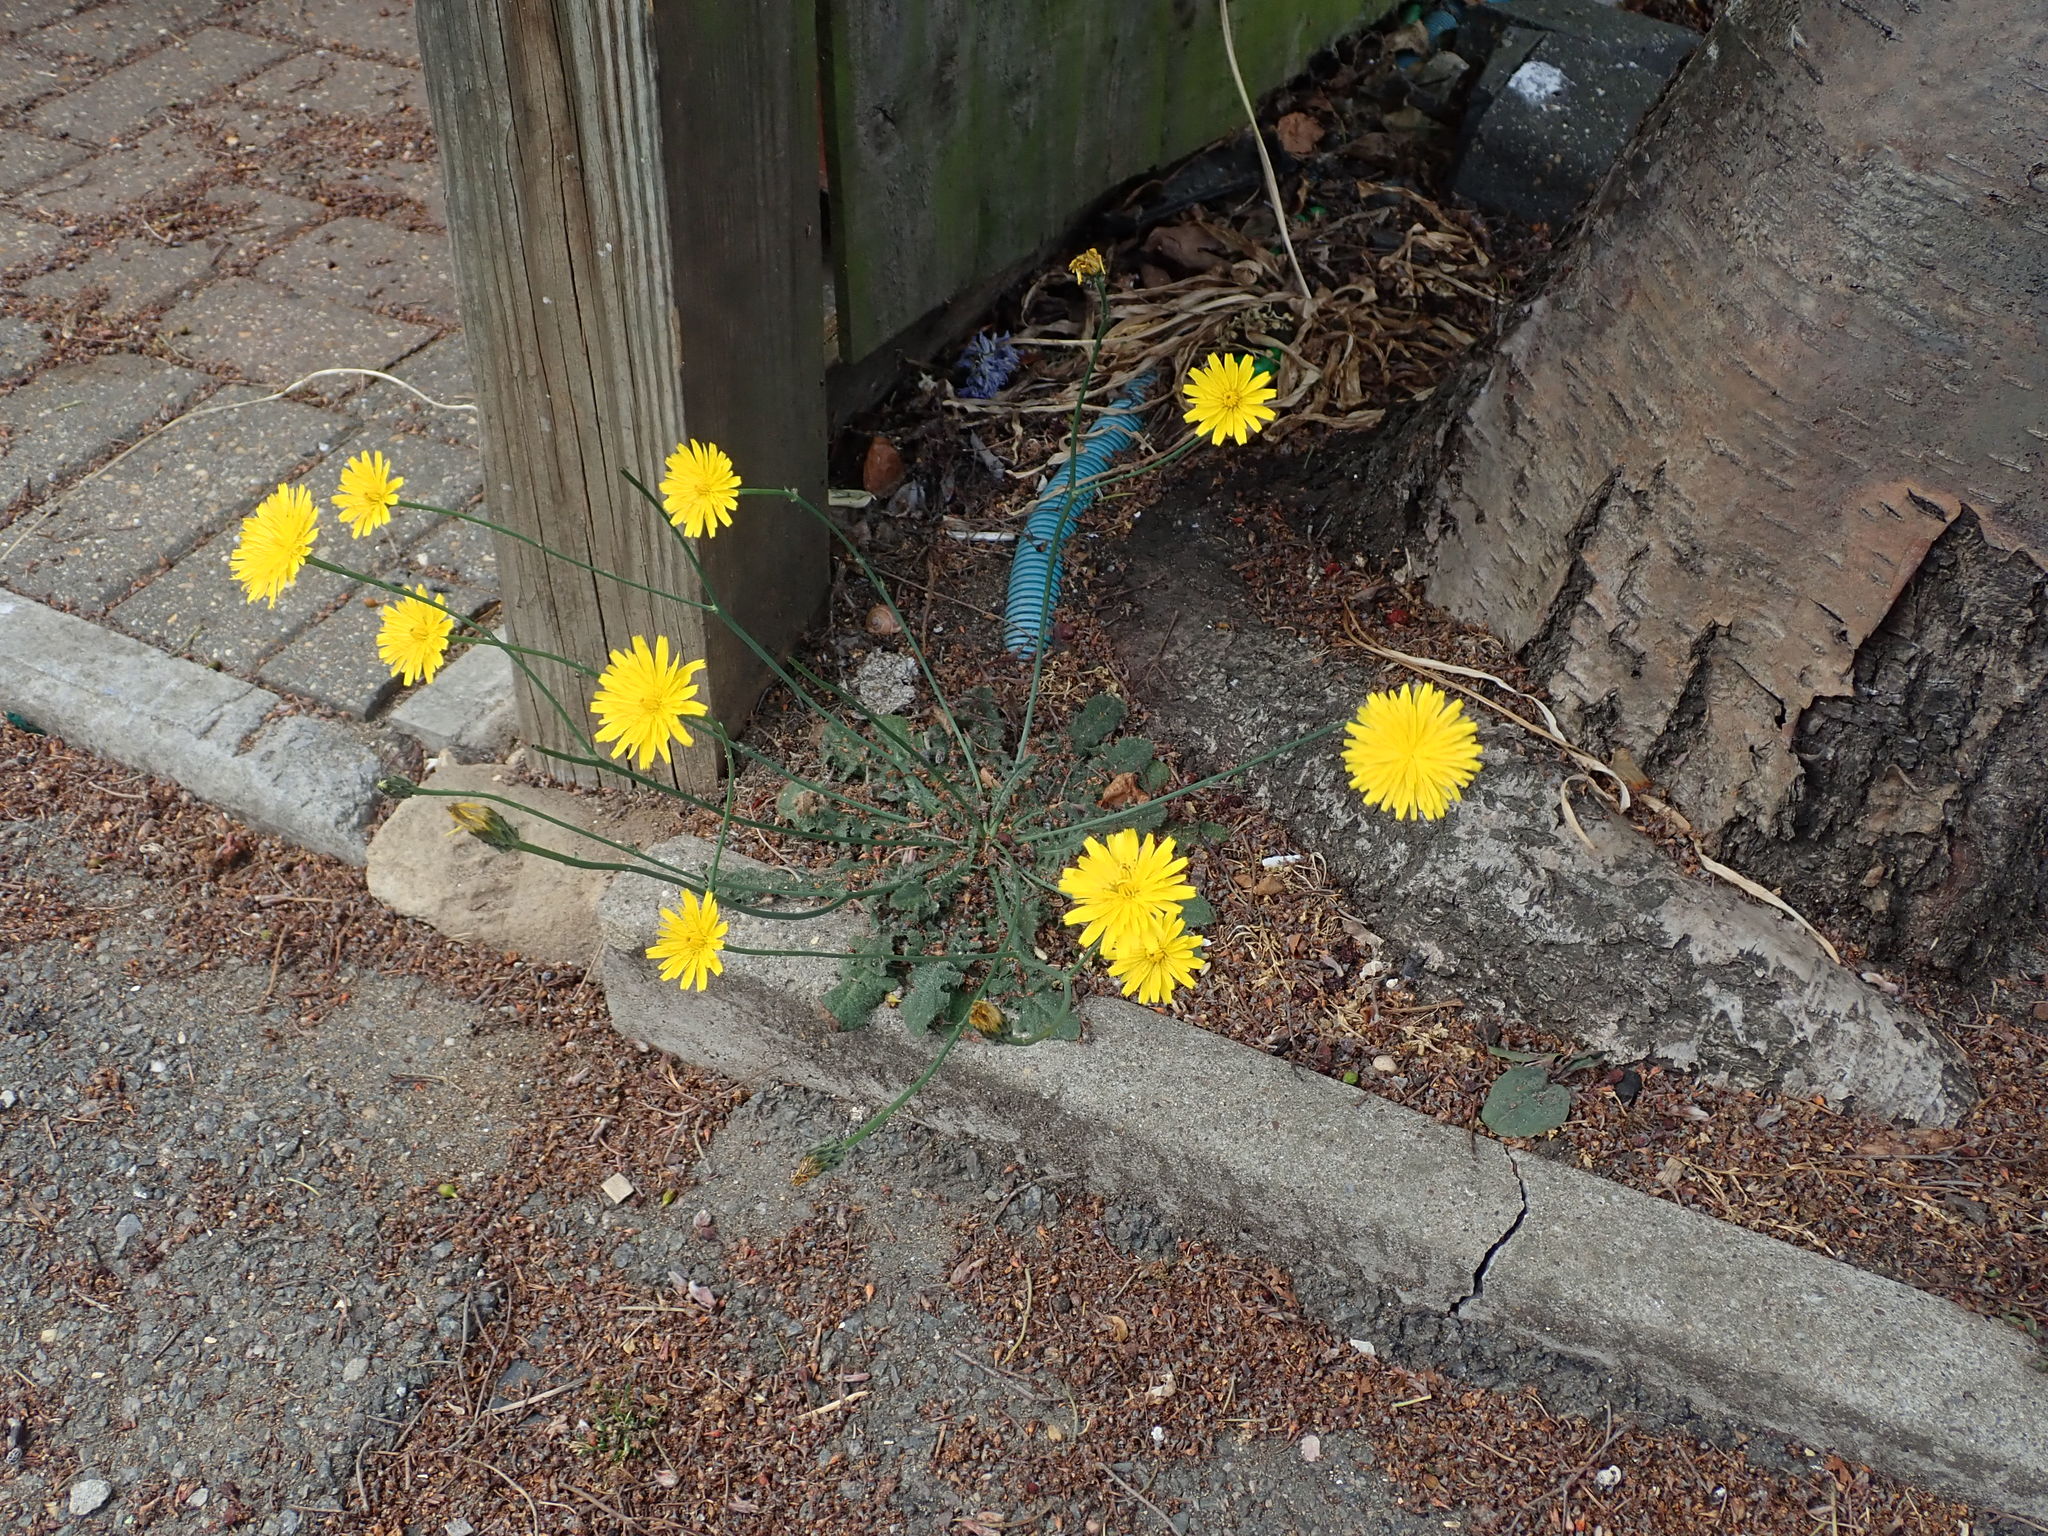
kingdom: Plantae
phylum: Tracheophyta
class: Magnoliopsida
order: Asterales
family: Asteraceae
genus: Hypochaeris
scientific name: Hypochaeris radicata
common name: Flatweed
